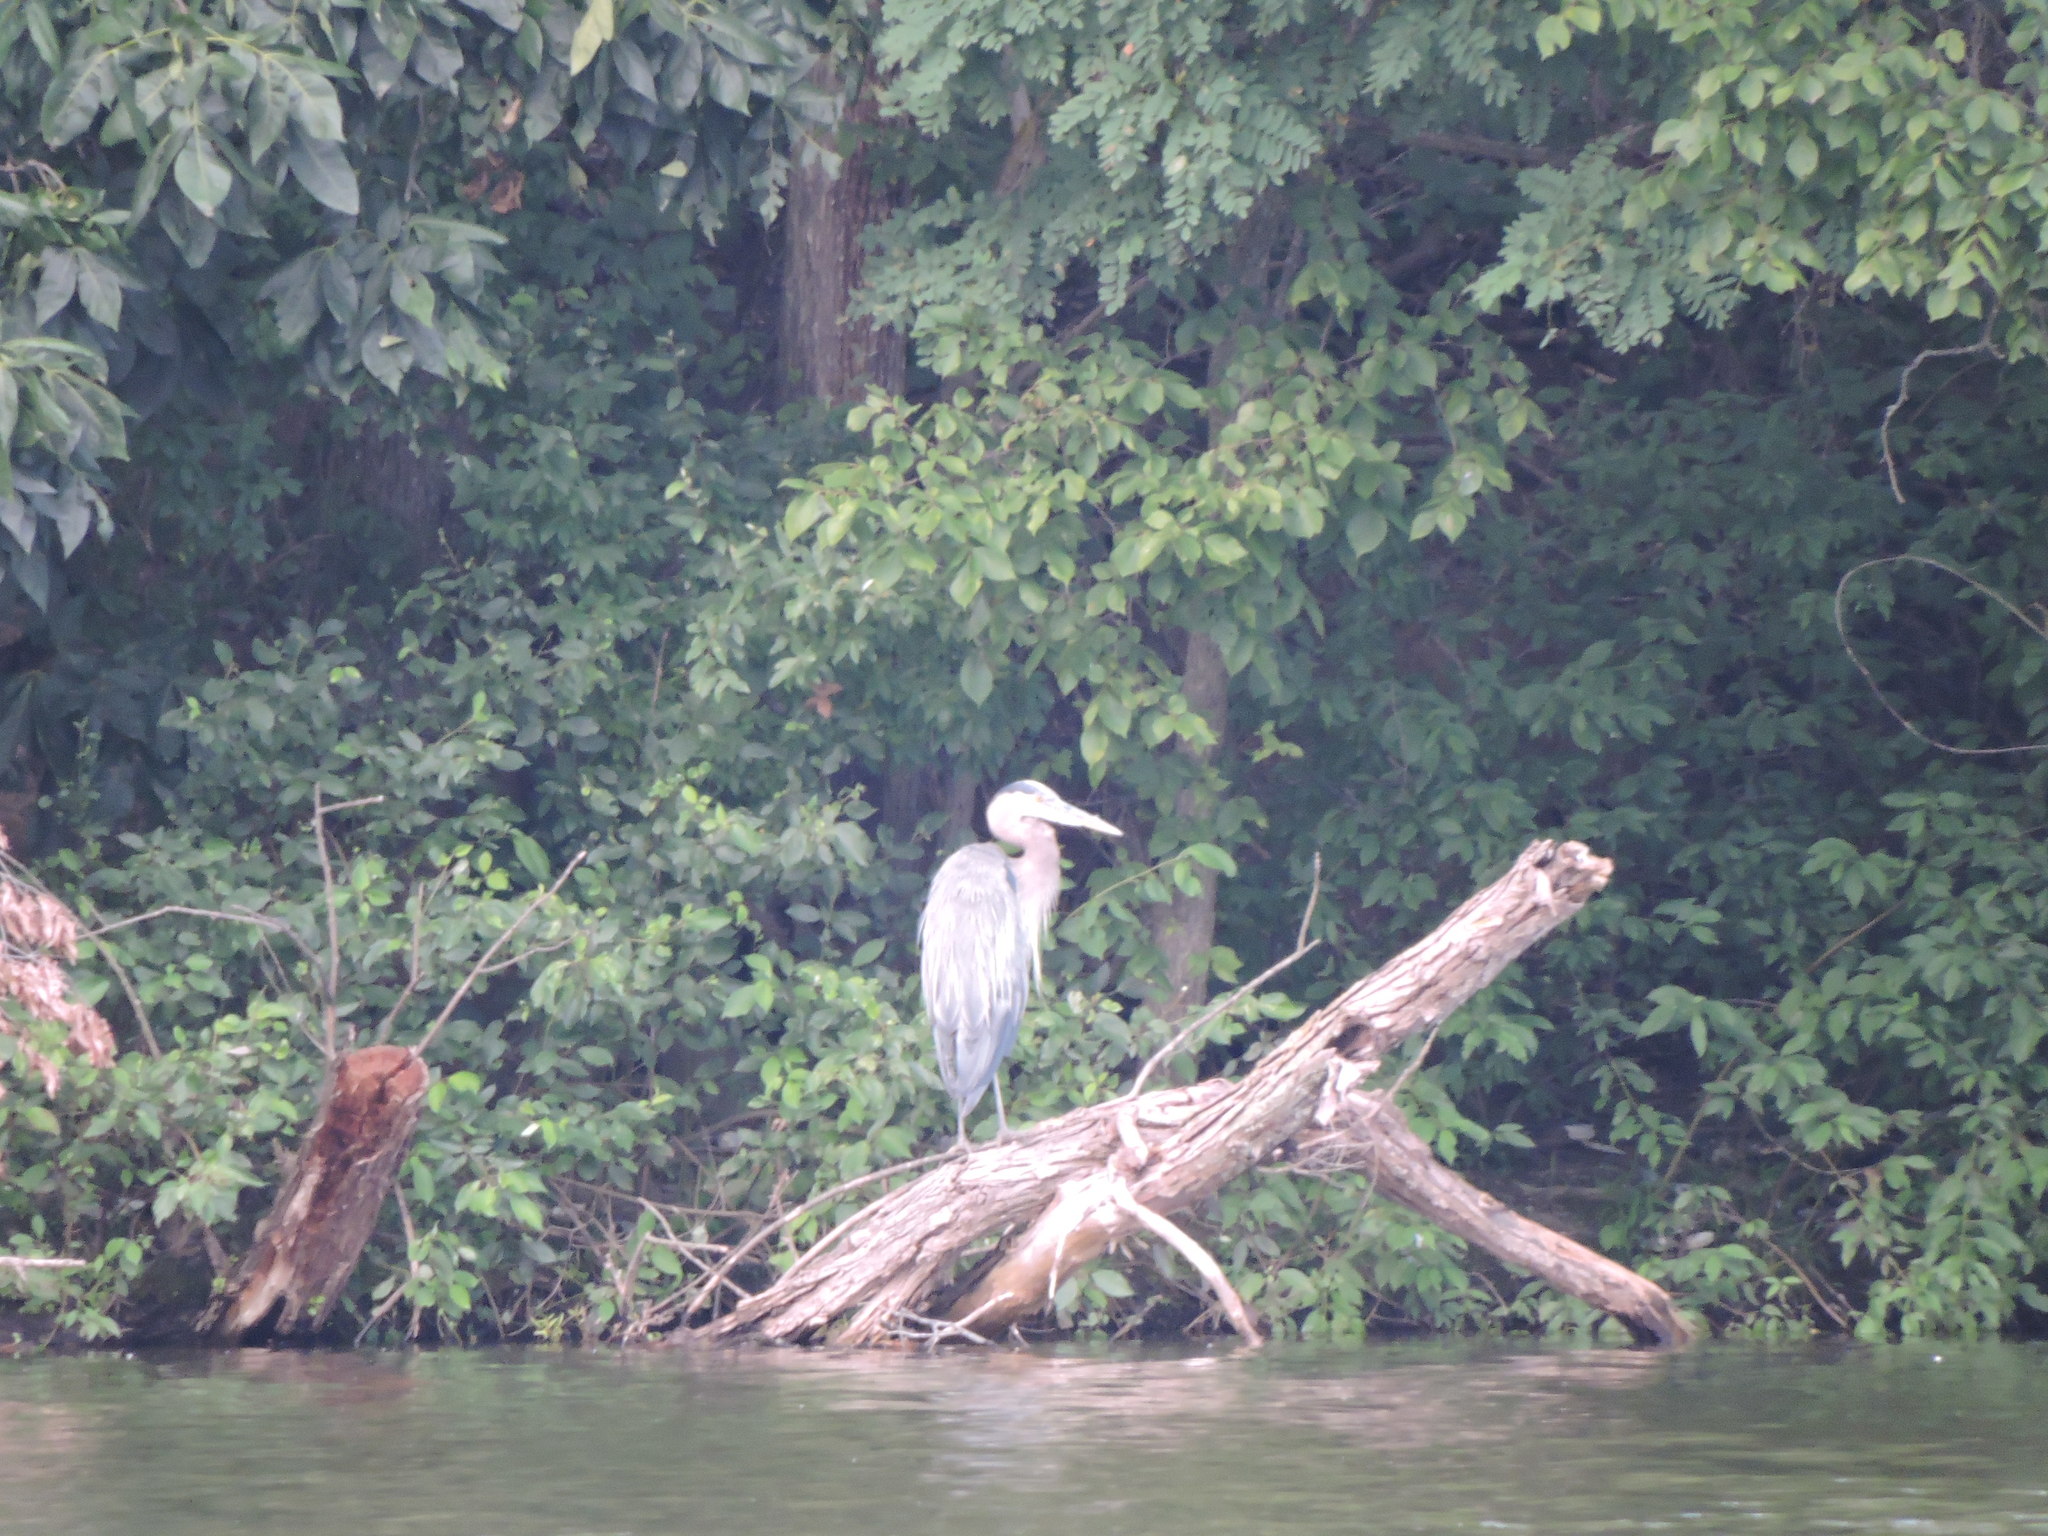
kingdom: Animalia
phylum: Chordata
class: Aves
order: Pelecaniformes
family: Ardeidae
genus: Ardea
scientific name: Ardea herodias
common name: Great blue heron
